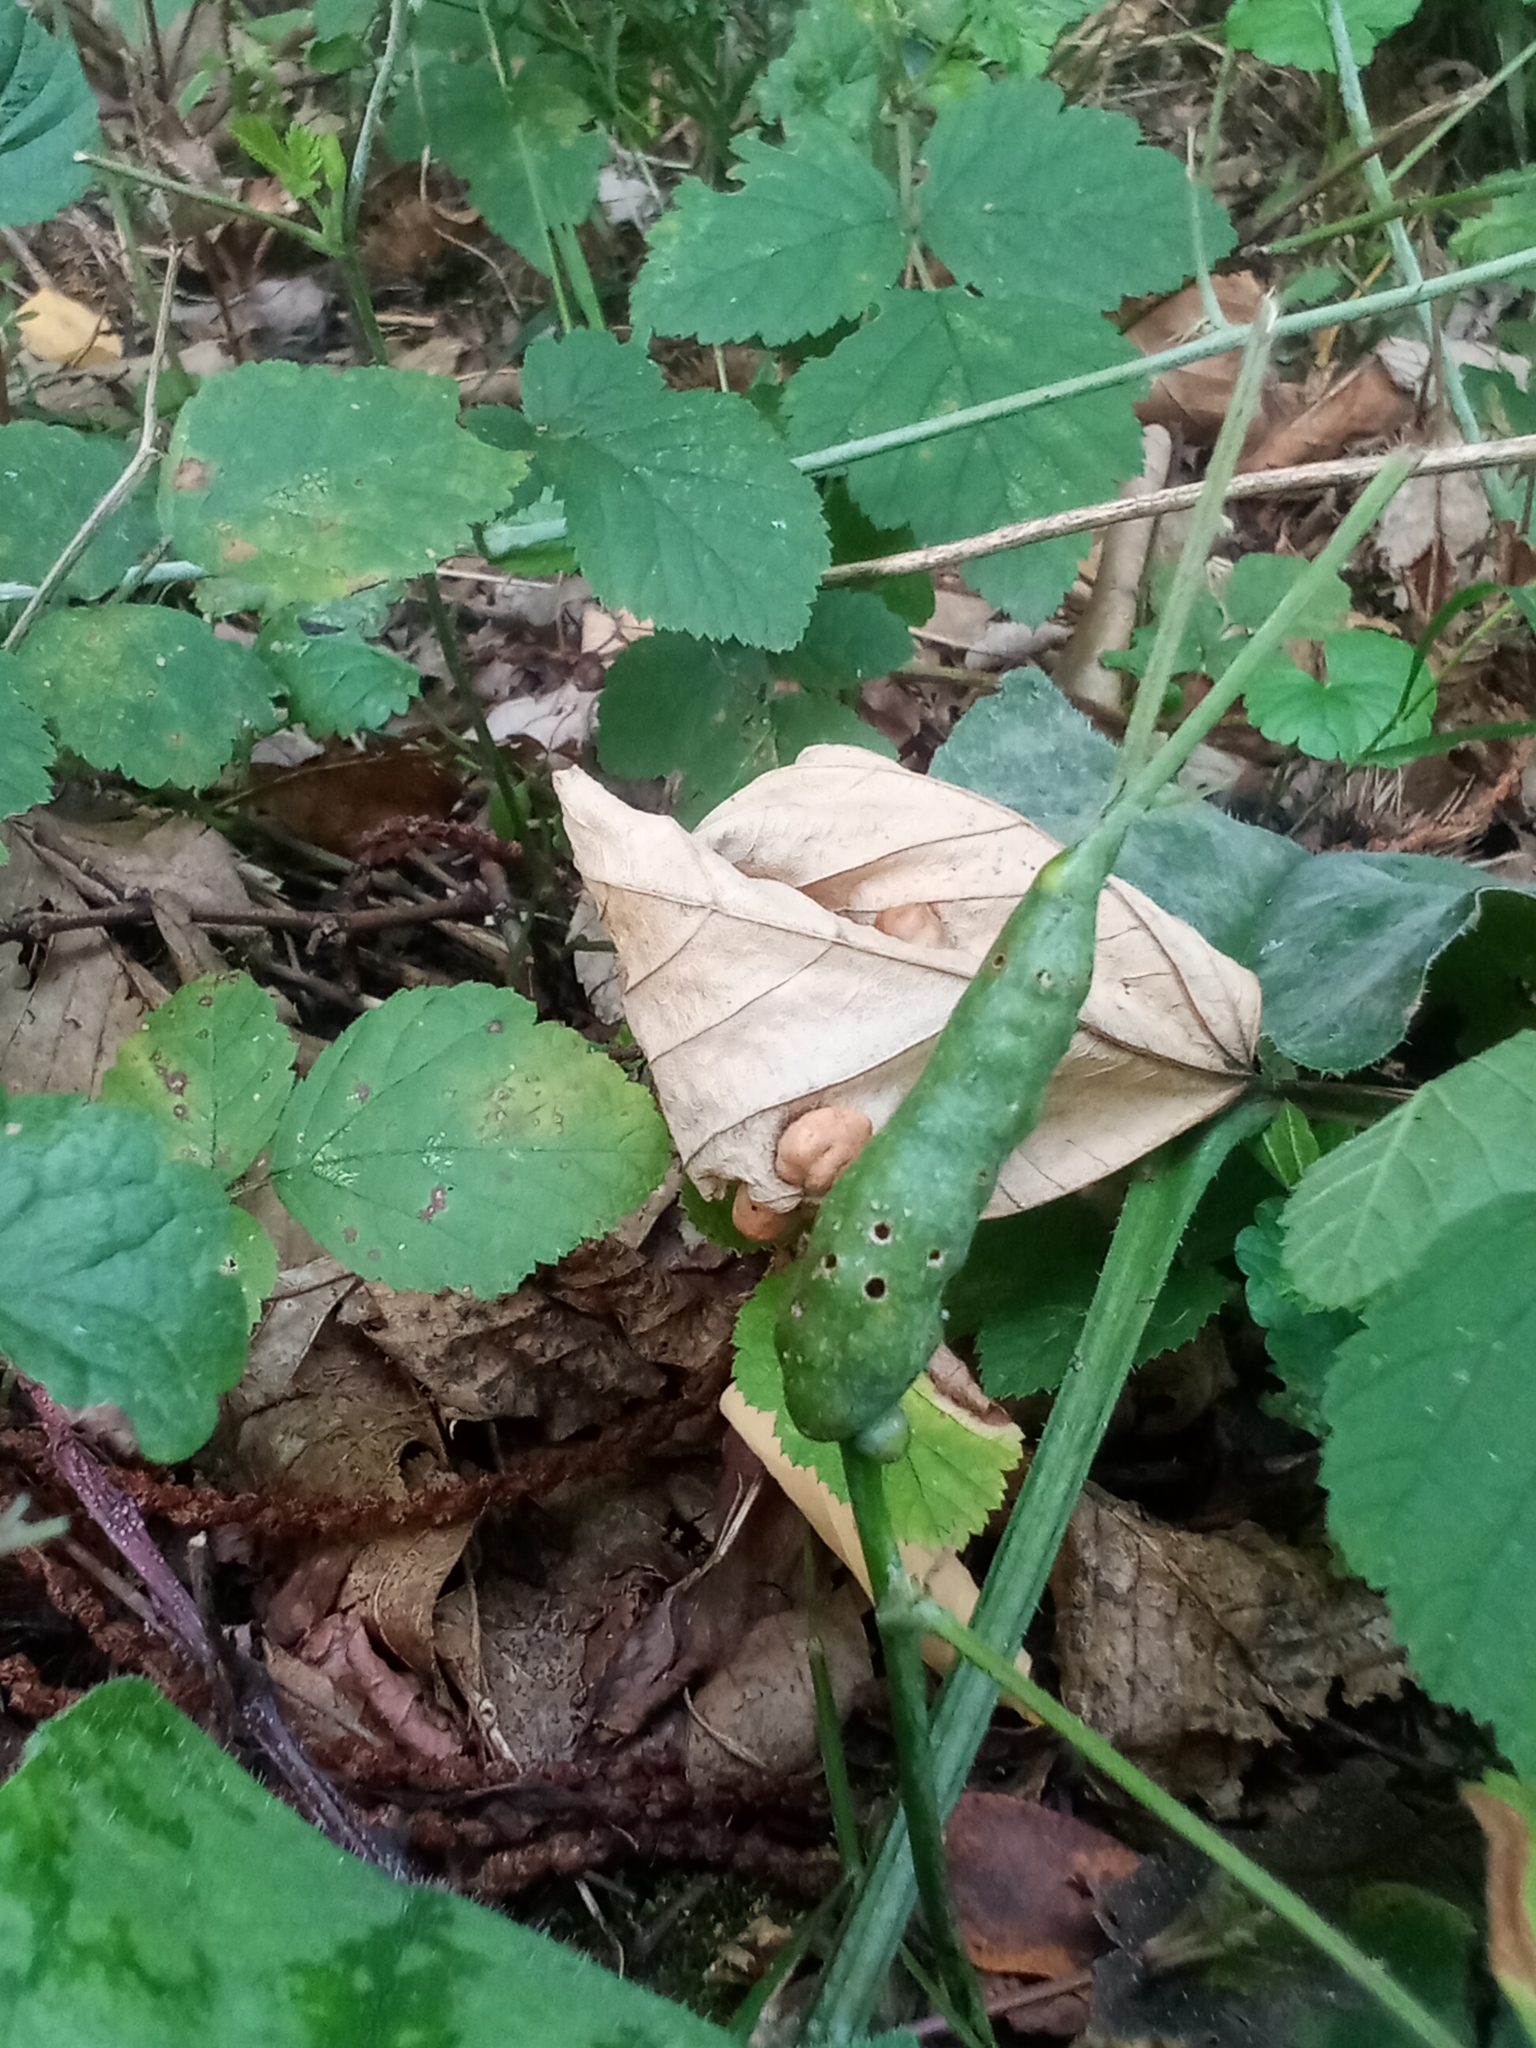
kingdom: Animalia
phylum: Arthropoda
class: Insecta
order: Hymenoptera
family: Cynipidae
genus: Diastrophus
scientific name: Diastrophus rubi
